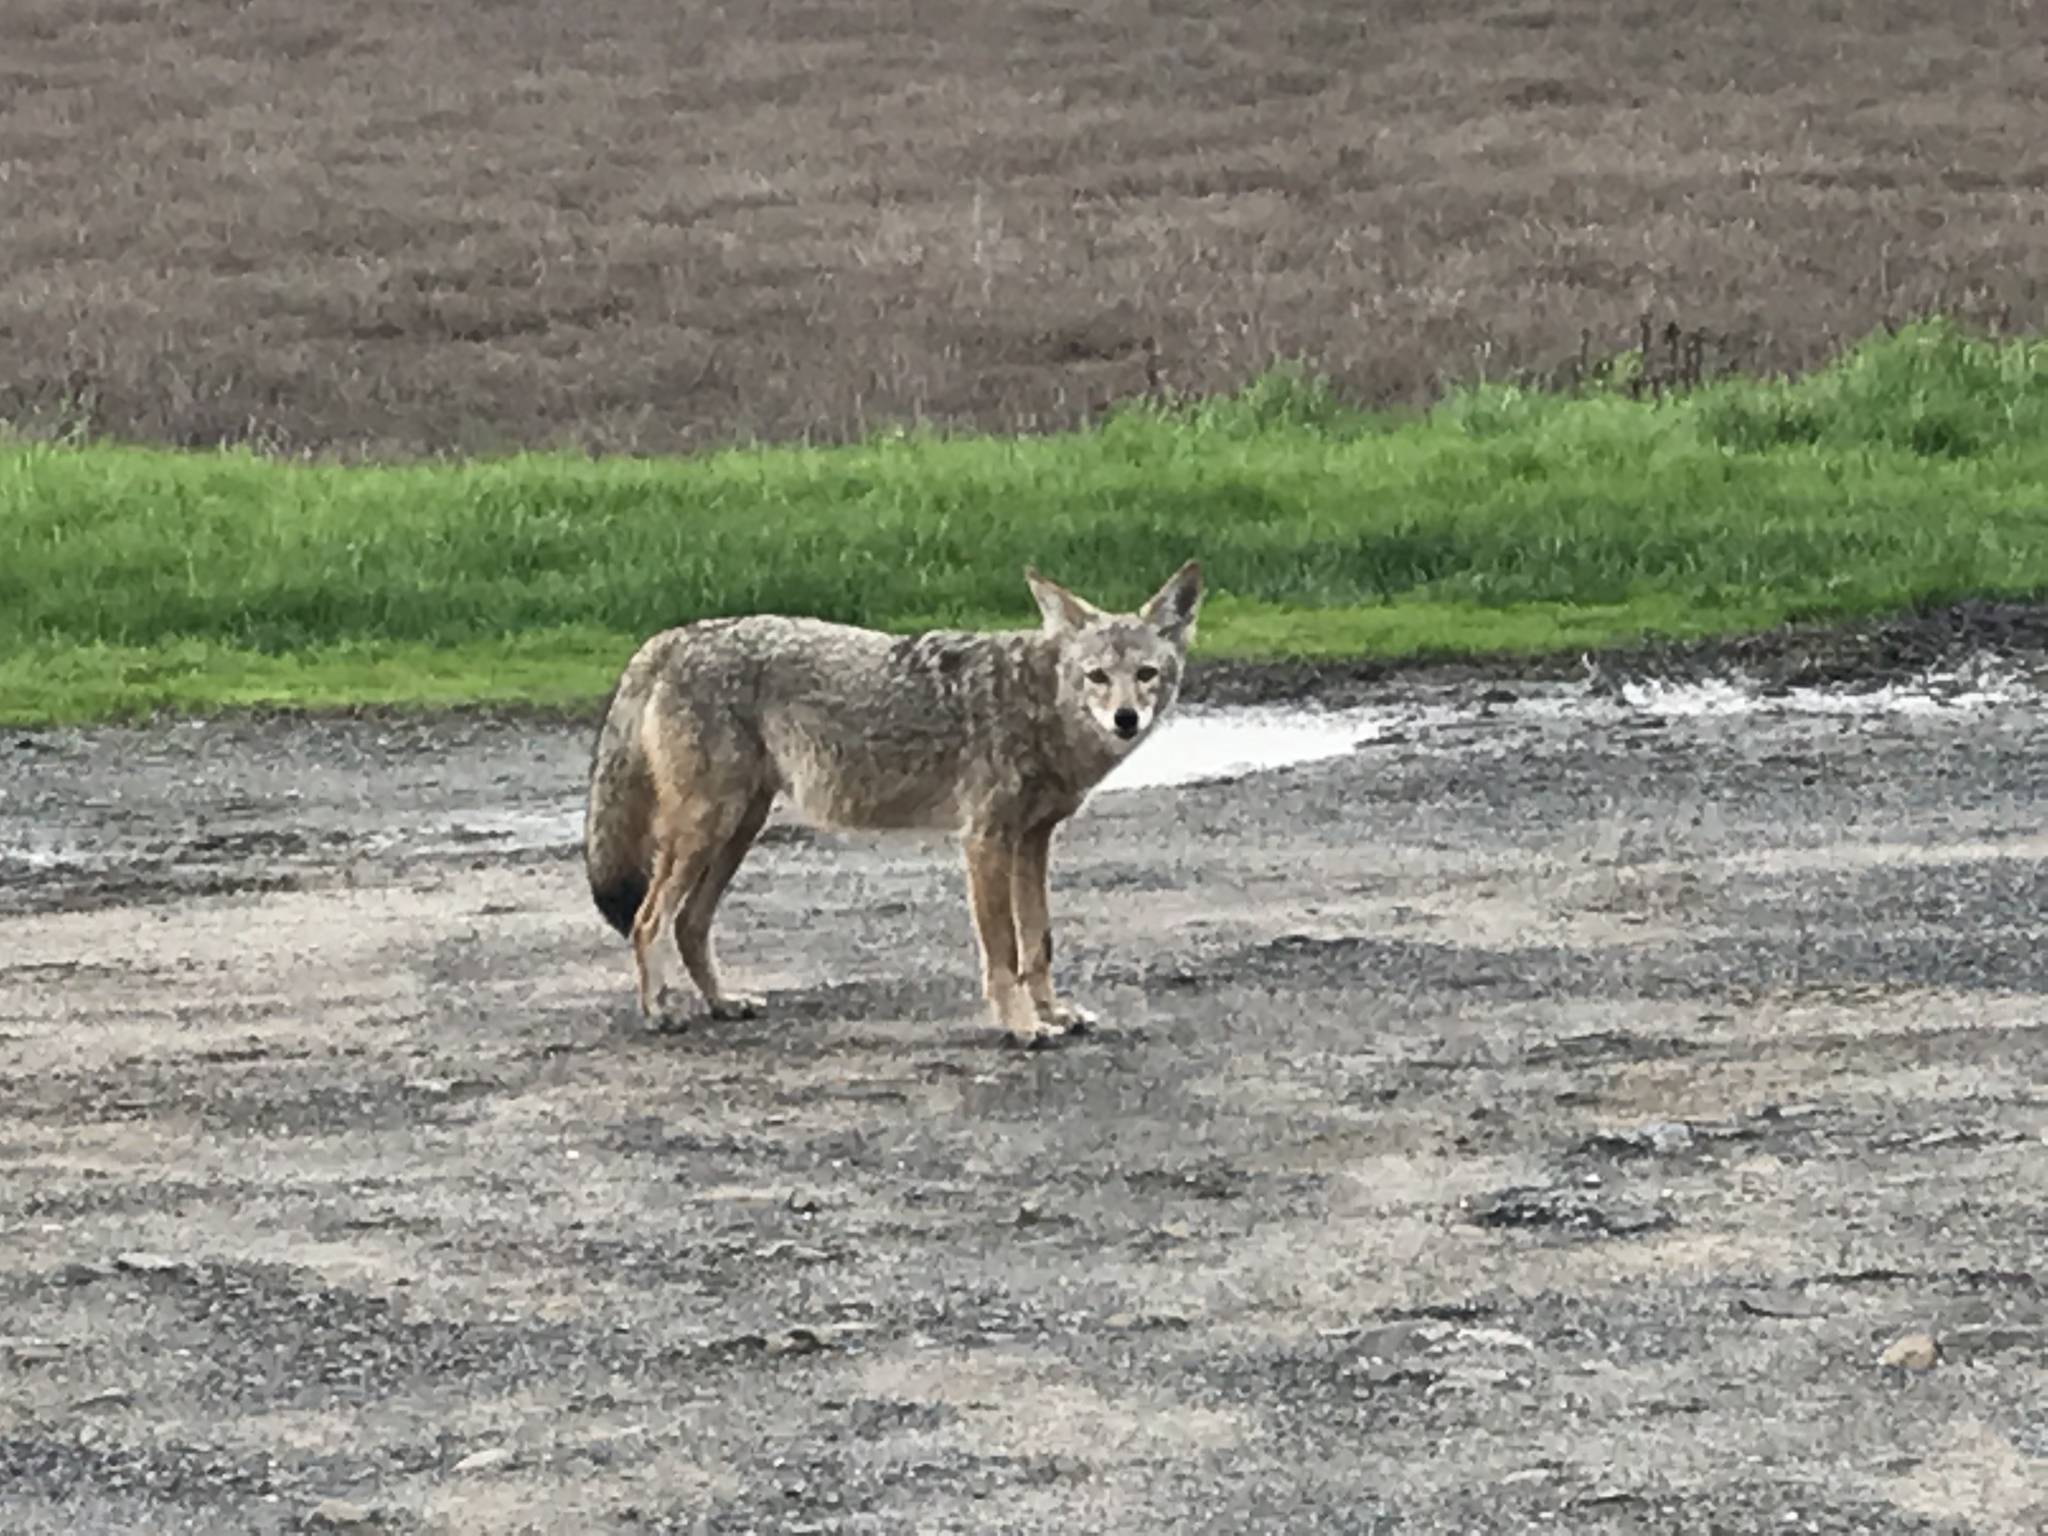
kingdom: Animalia
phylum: Chordata
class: Mammalia
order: Carnivora
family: Canidae
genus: Canis
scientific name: Canis latrans
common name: Coyote
